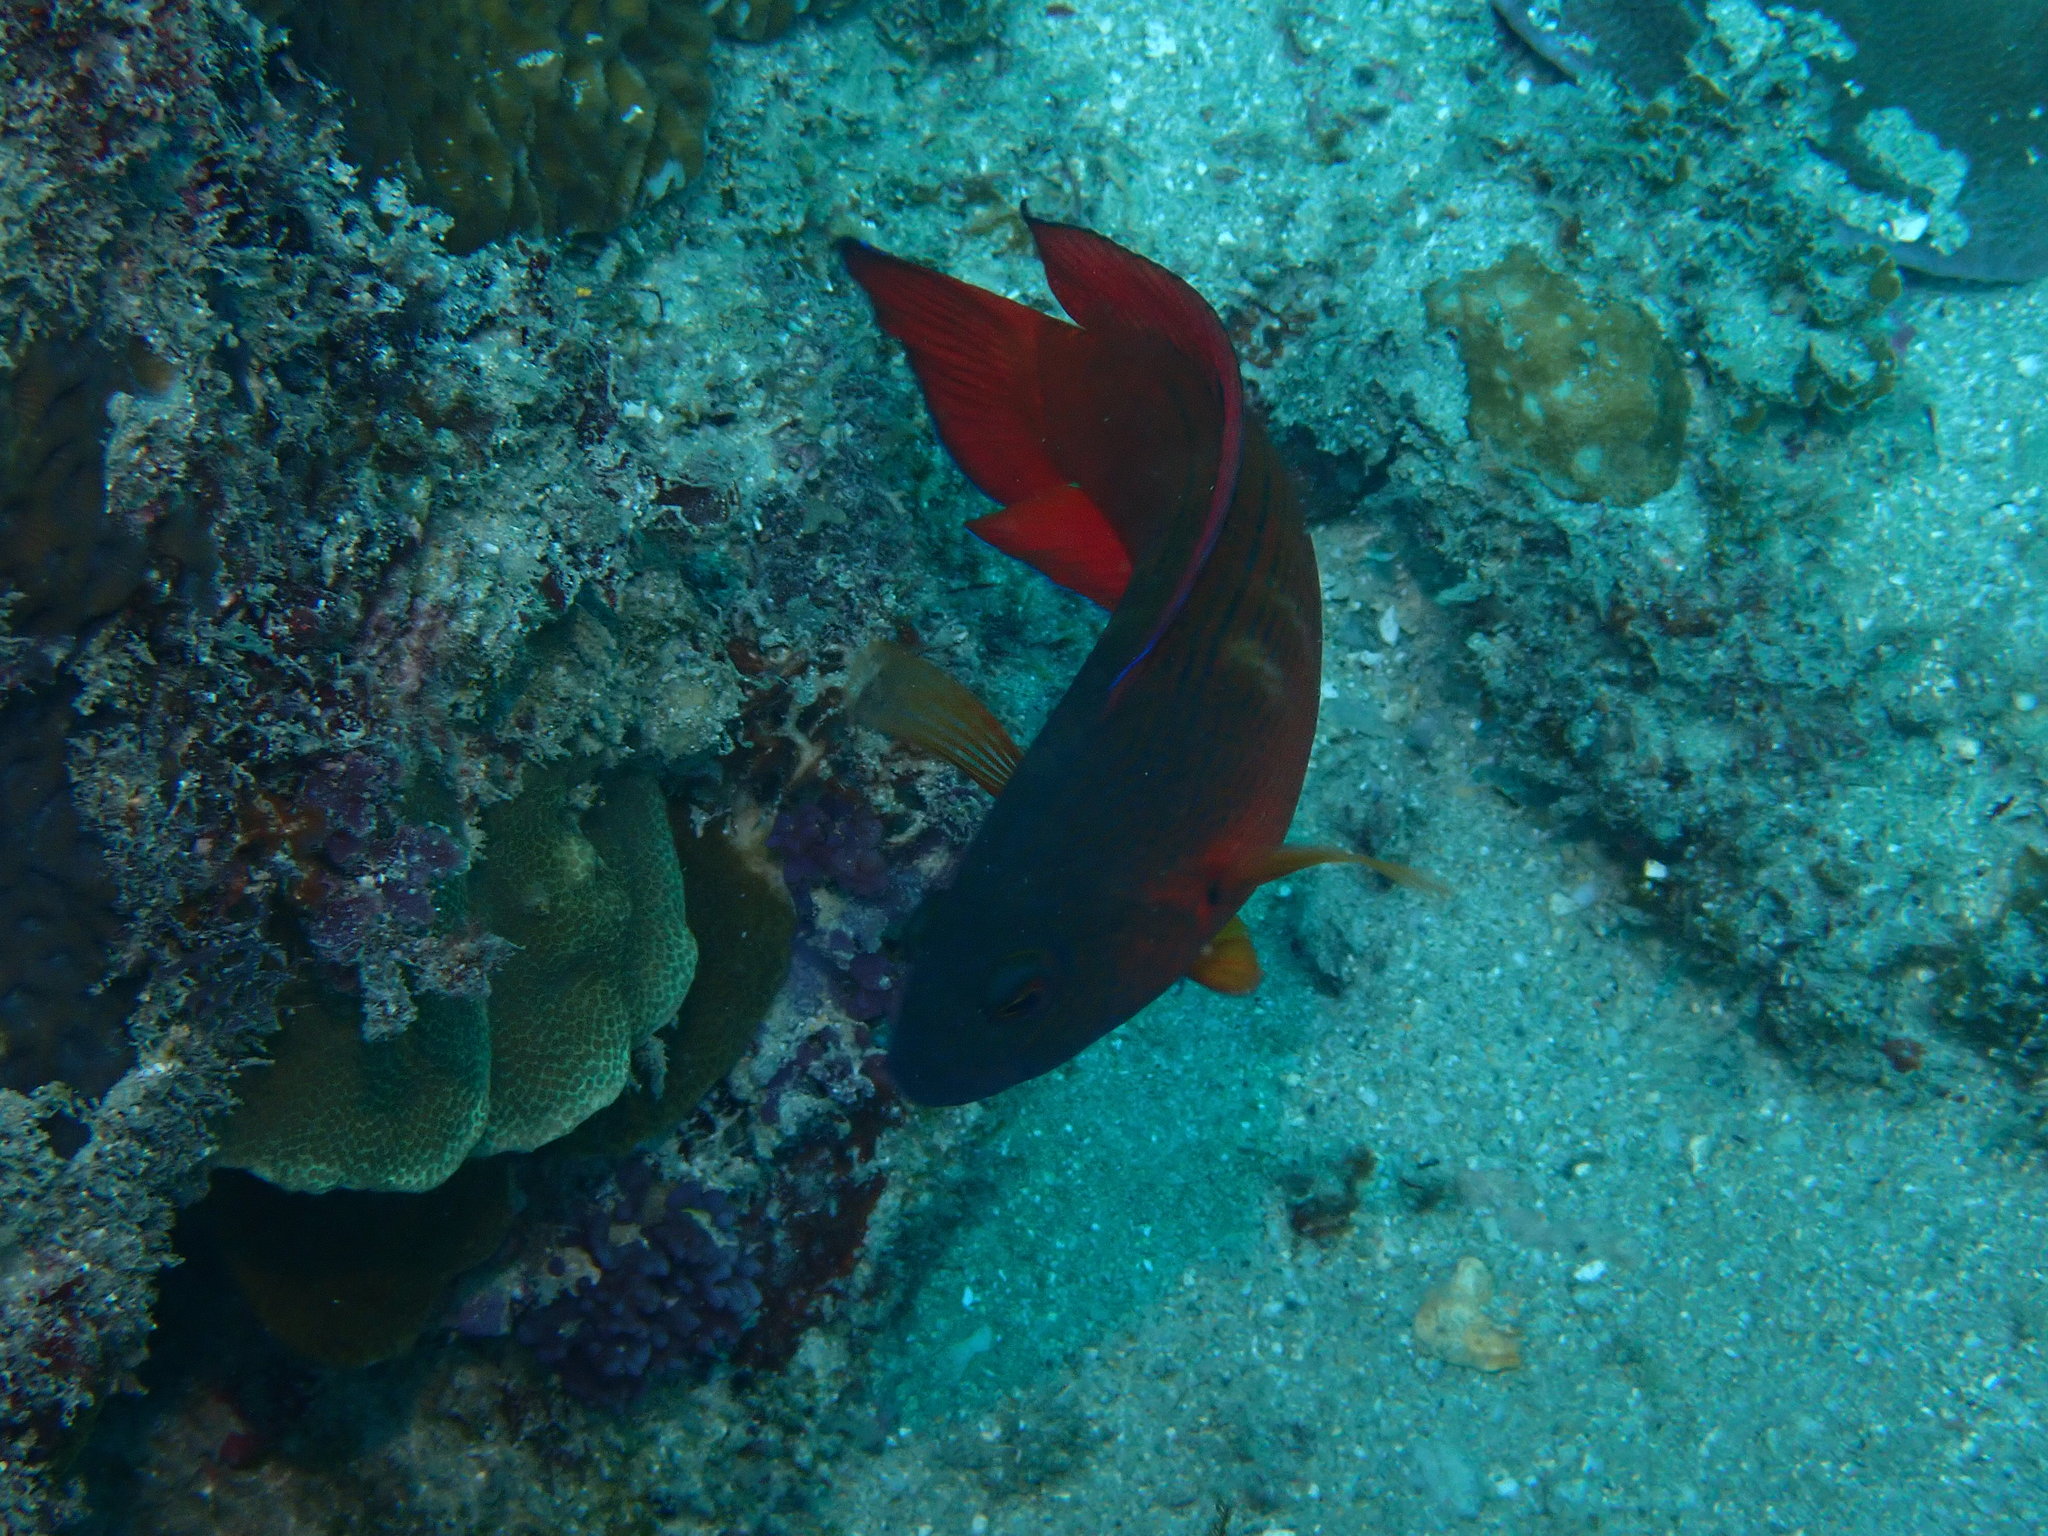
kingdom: Animalia
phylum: Chordata
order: Perciformes
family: Pseudochromidae
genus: Labracinus
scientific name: Labracinus cyclophthalmus
